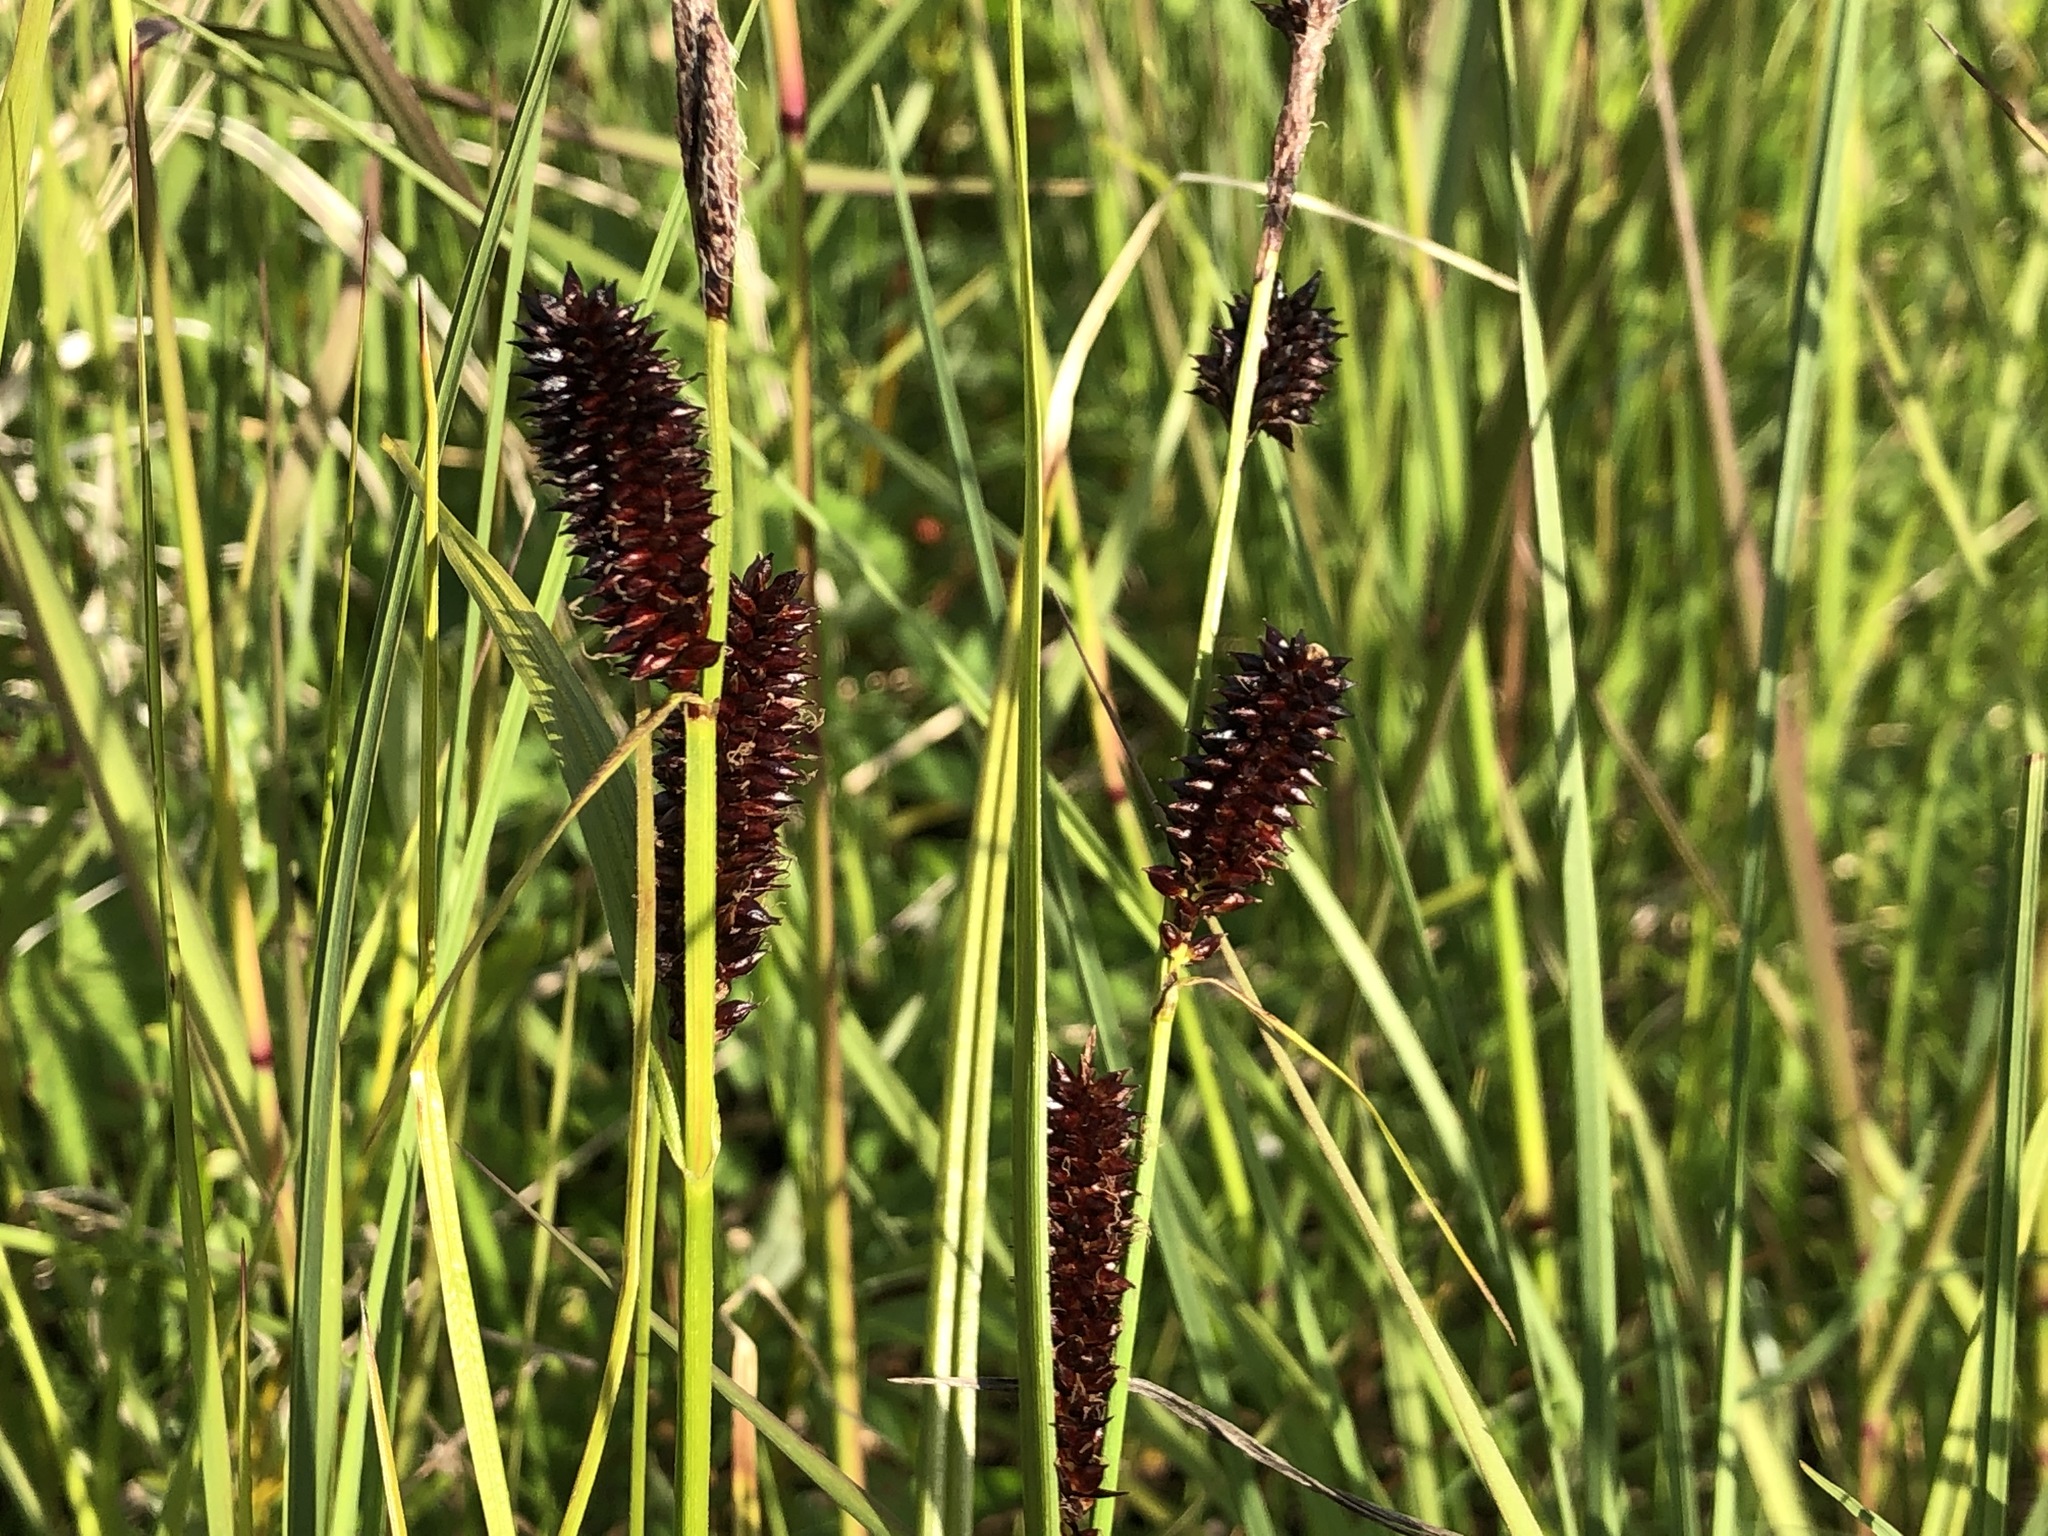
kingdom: Plantae
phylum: Tracheophyta
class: Liliopsida
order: Poales
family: Cyperaceae
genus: Carex
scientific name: Carex membranacea
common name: Fragile sedge
